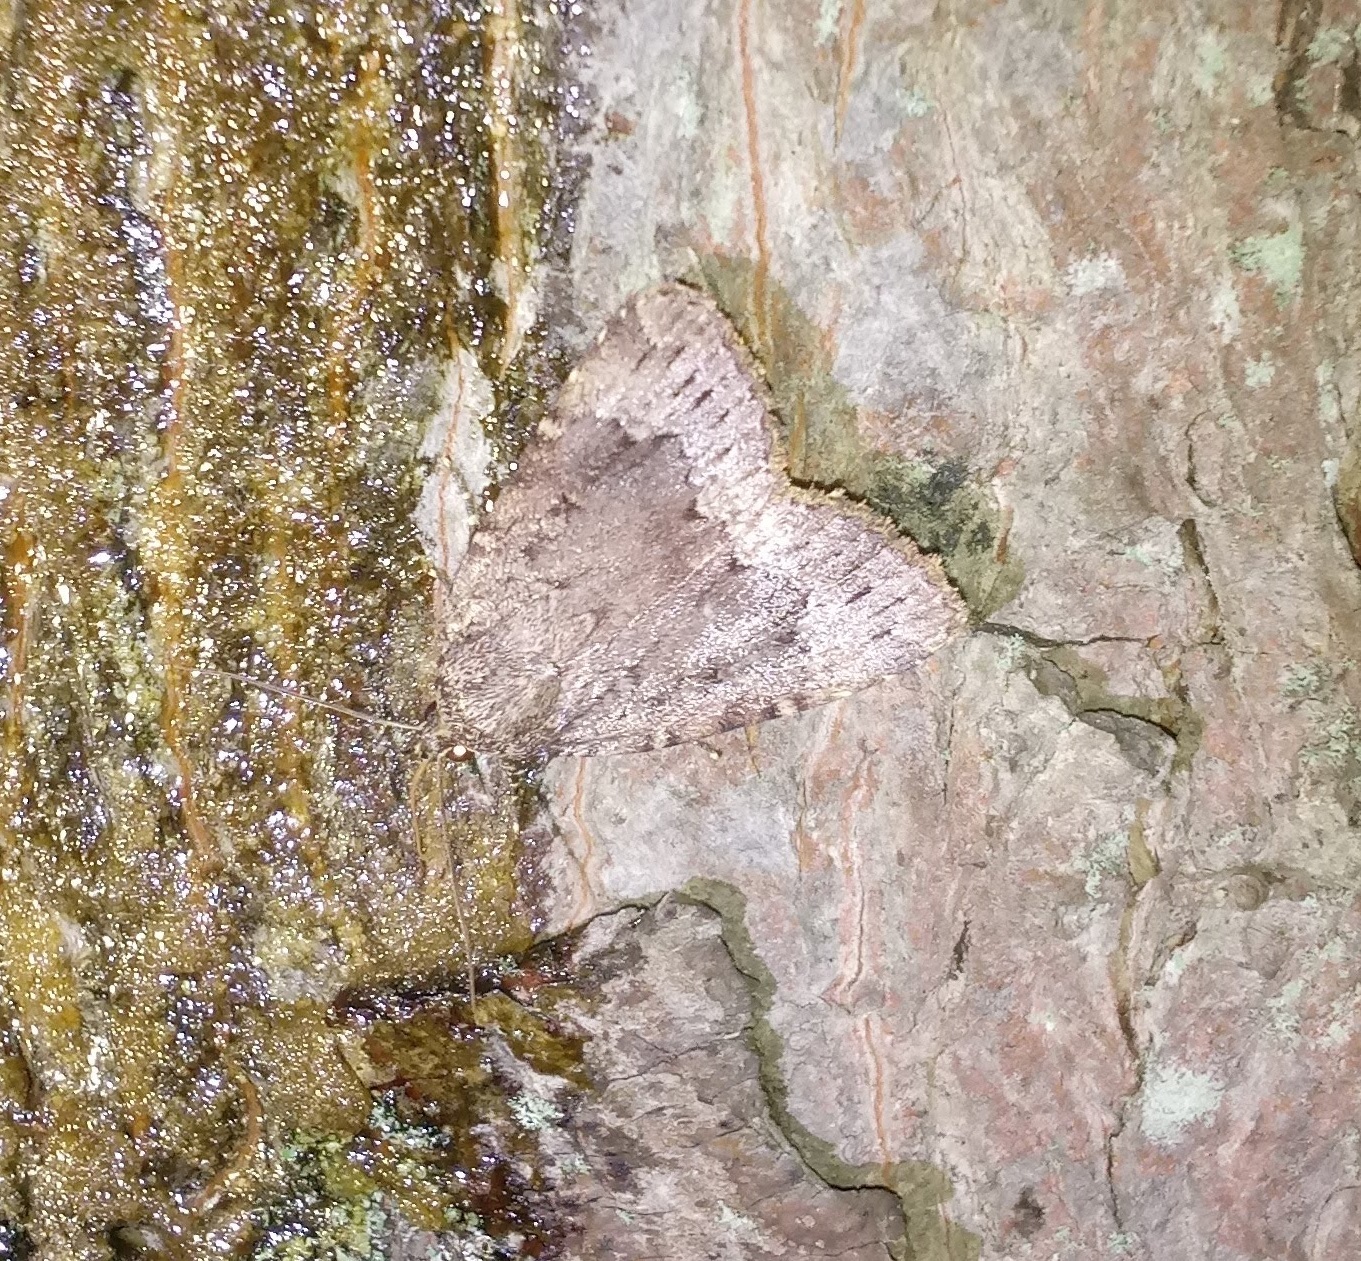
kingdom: Animalia
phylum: Arthropoda
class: Insecta
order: Lepidoptera
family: Noctuidae
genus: Amphipyra
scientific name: Amphipyra pyramidoides
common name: American copper underwing
